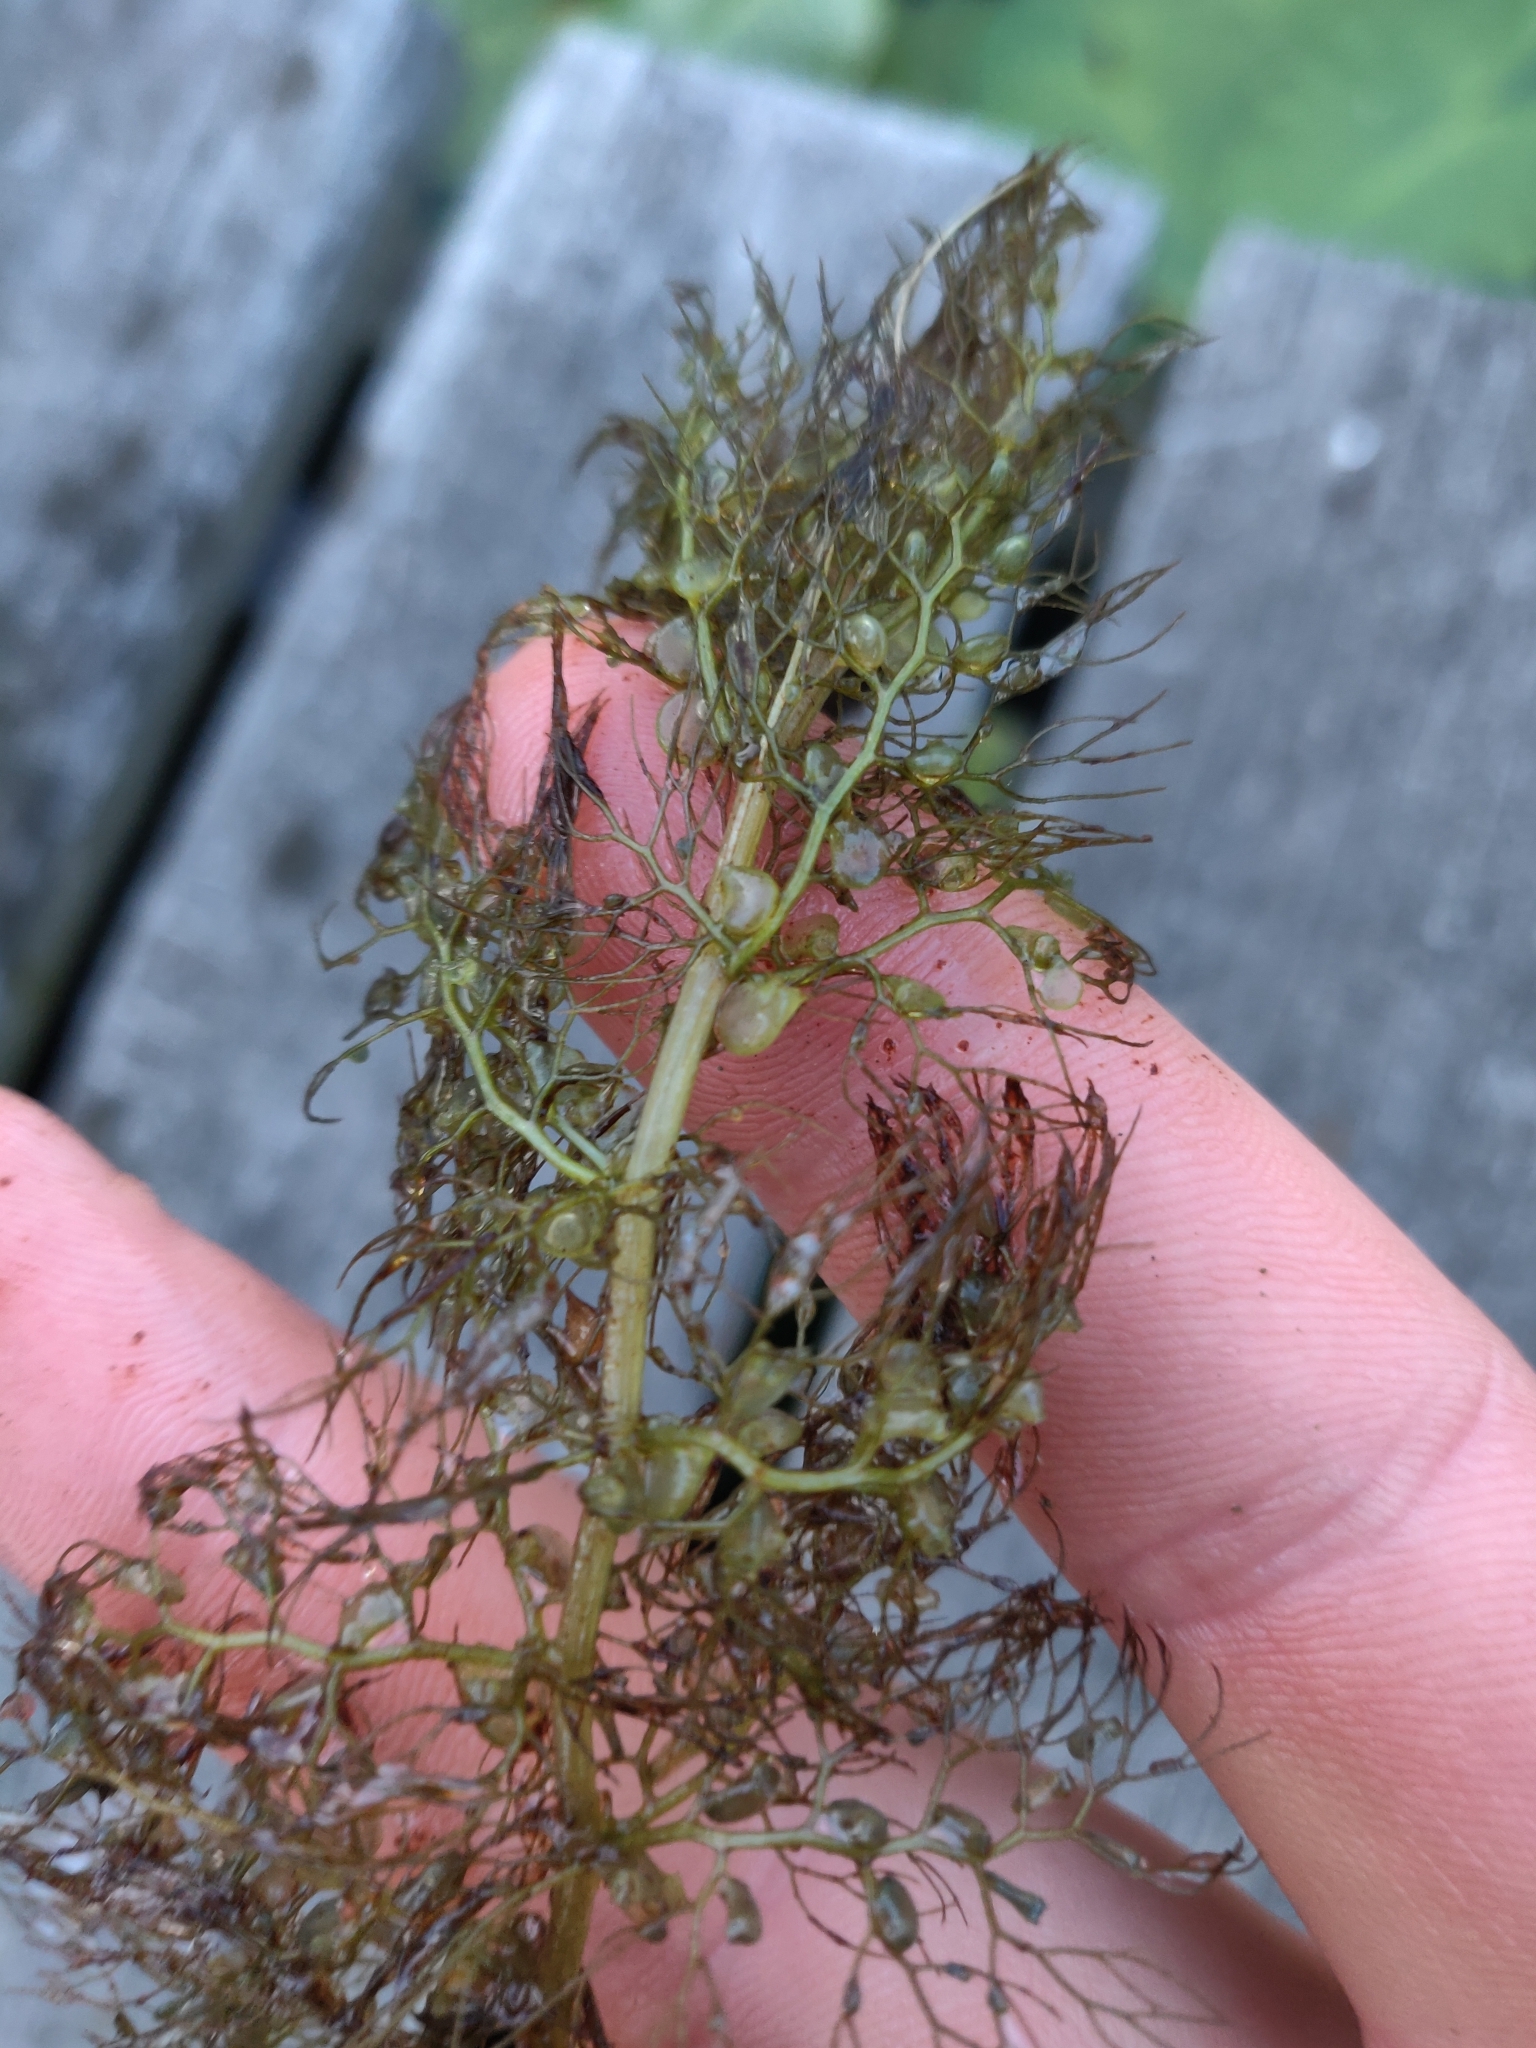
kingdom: Plantae
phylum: Tracheophyta
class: Magnoliopsida
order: Lamiales
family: Lentibulariaceae
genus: Utricularia
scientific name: Utricularia macrorhiza
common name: Common bladderwort
